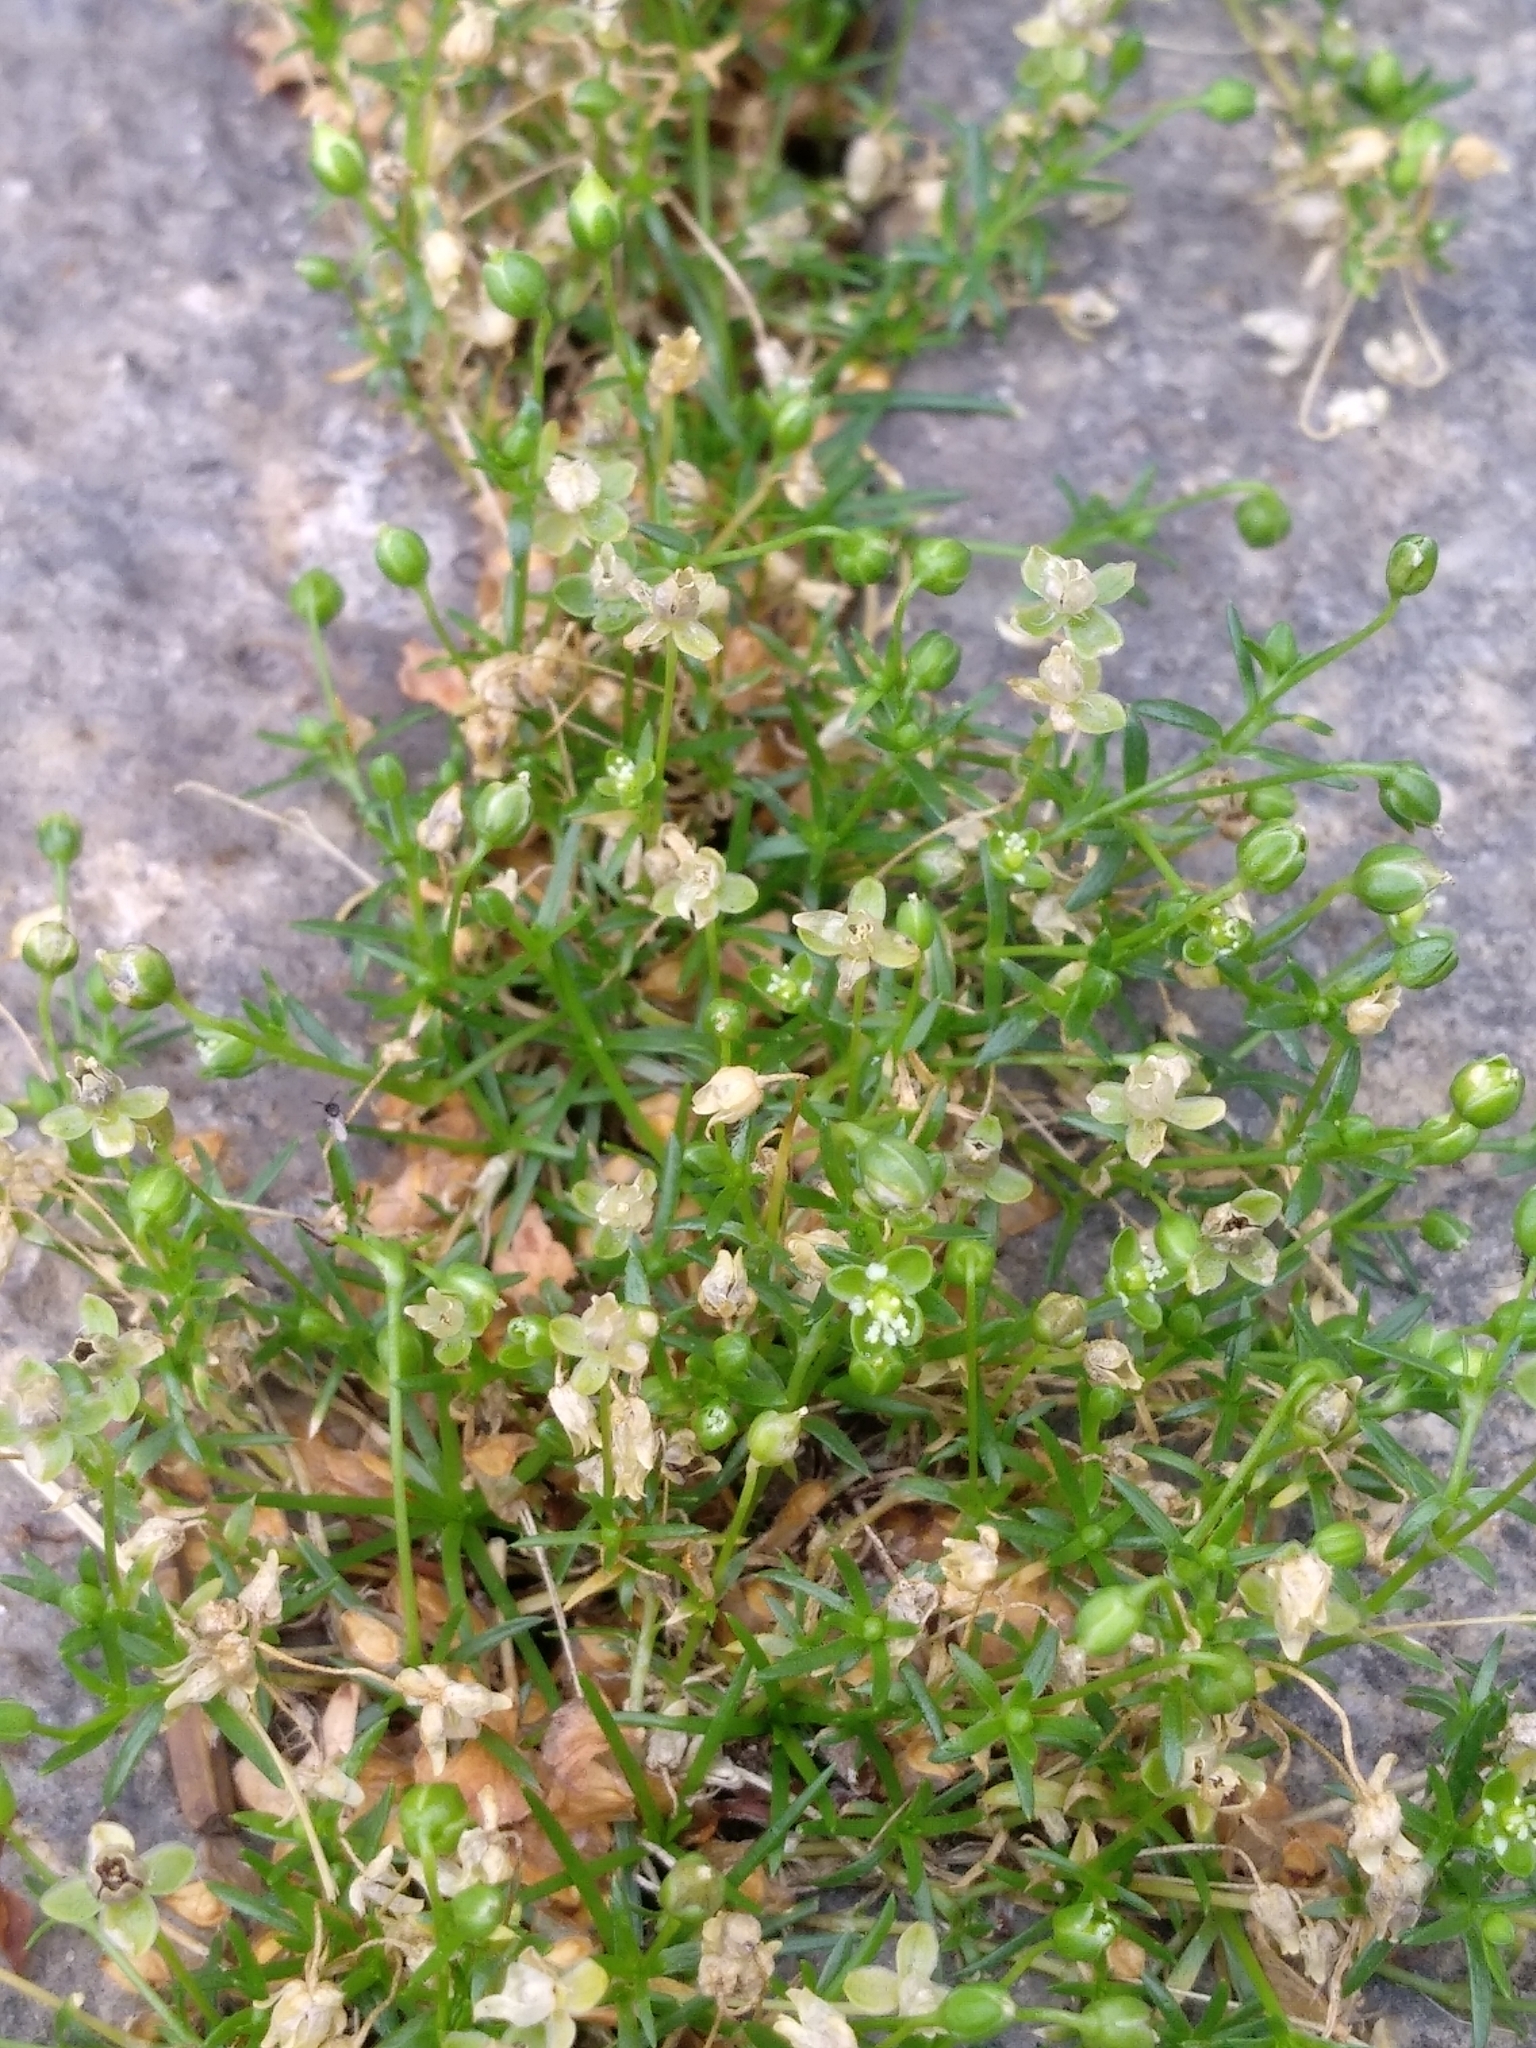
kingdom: Plantae
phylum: Tracheophyta
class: Magnoliopsida
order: Caryophyllales
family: Caryophyllaceae
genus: Sagina
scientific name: Sagina procumbens
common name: Procumbent pearlwort
